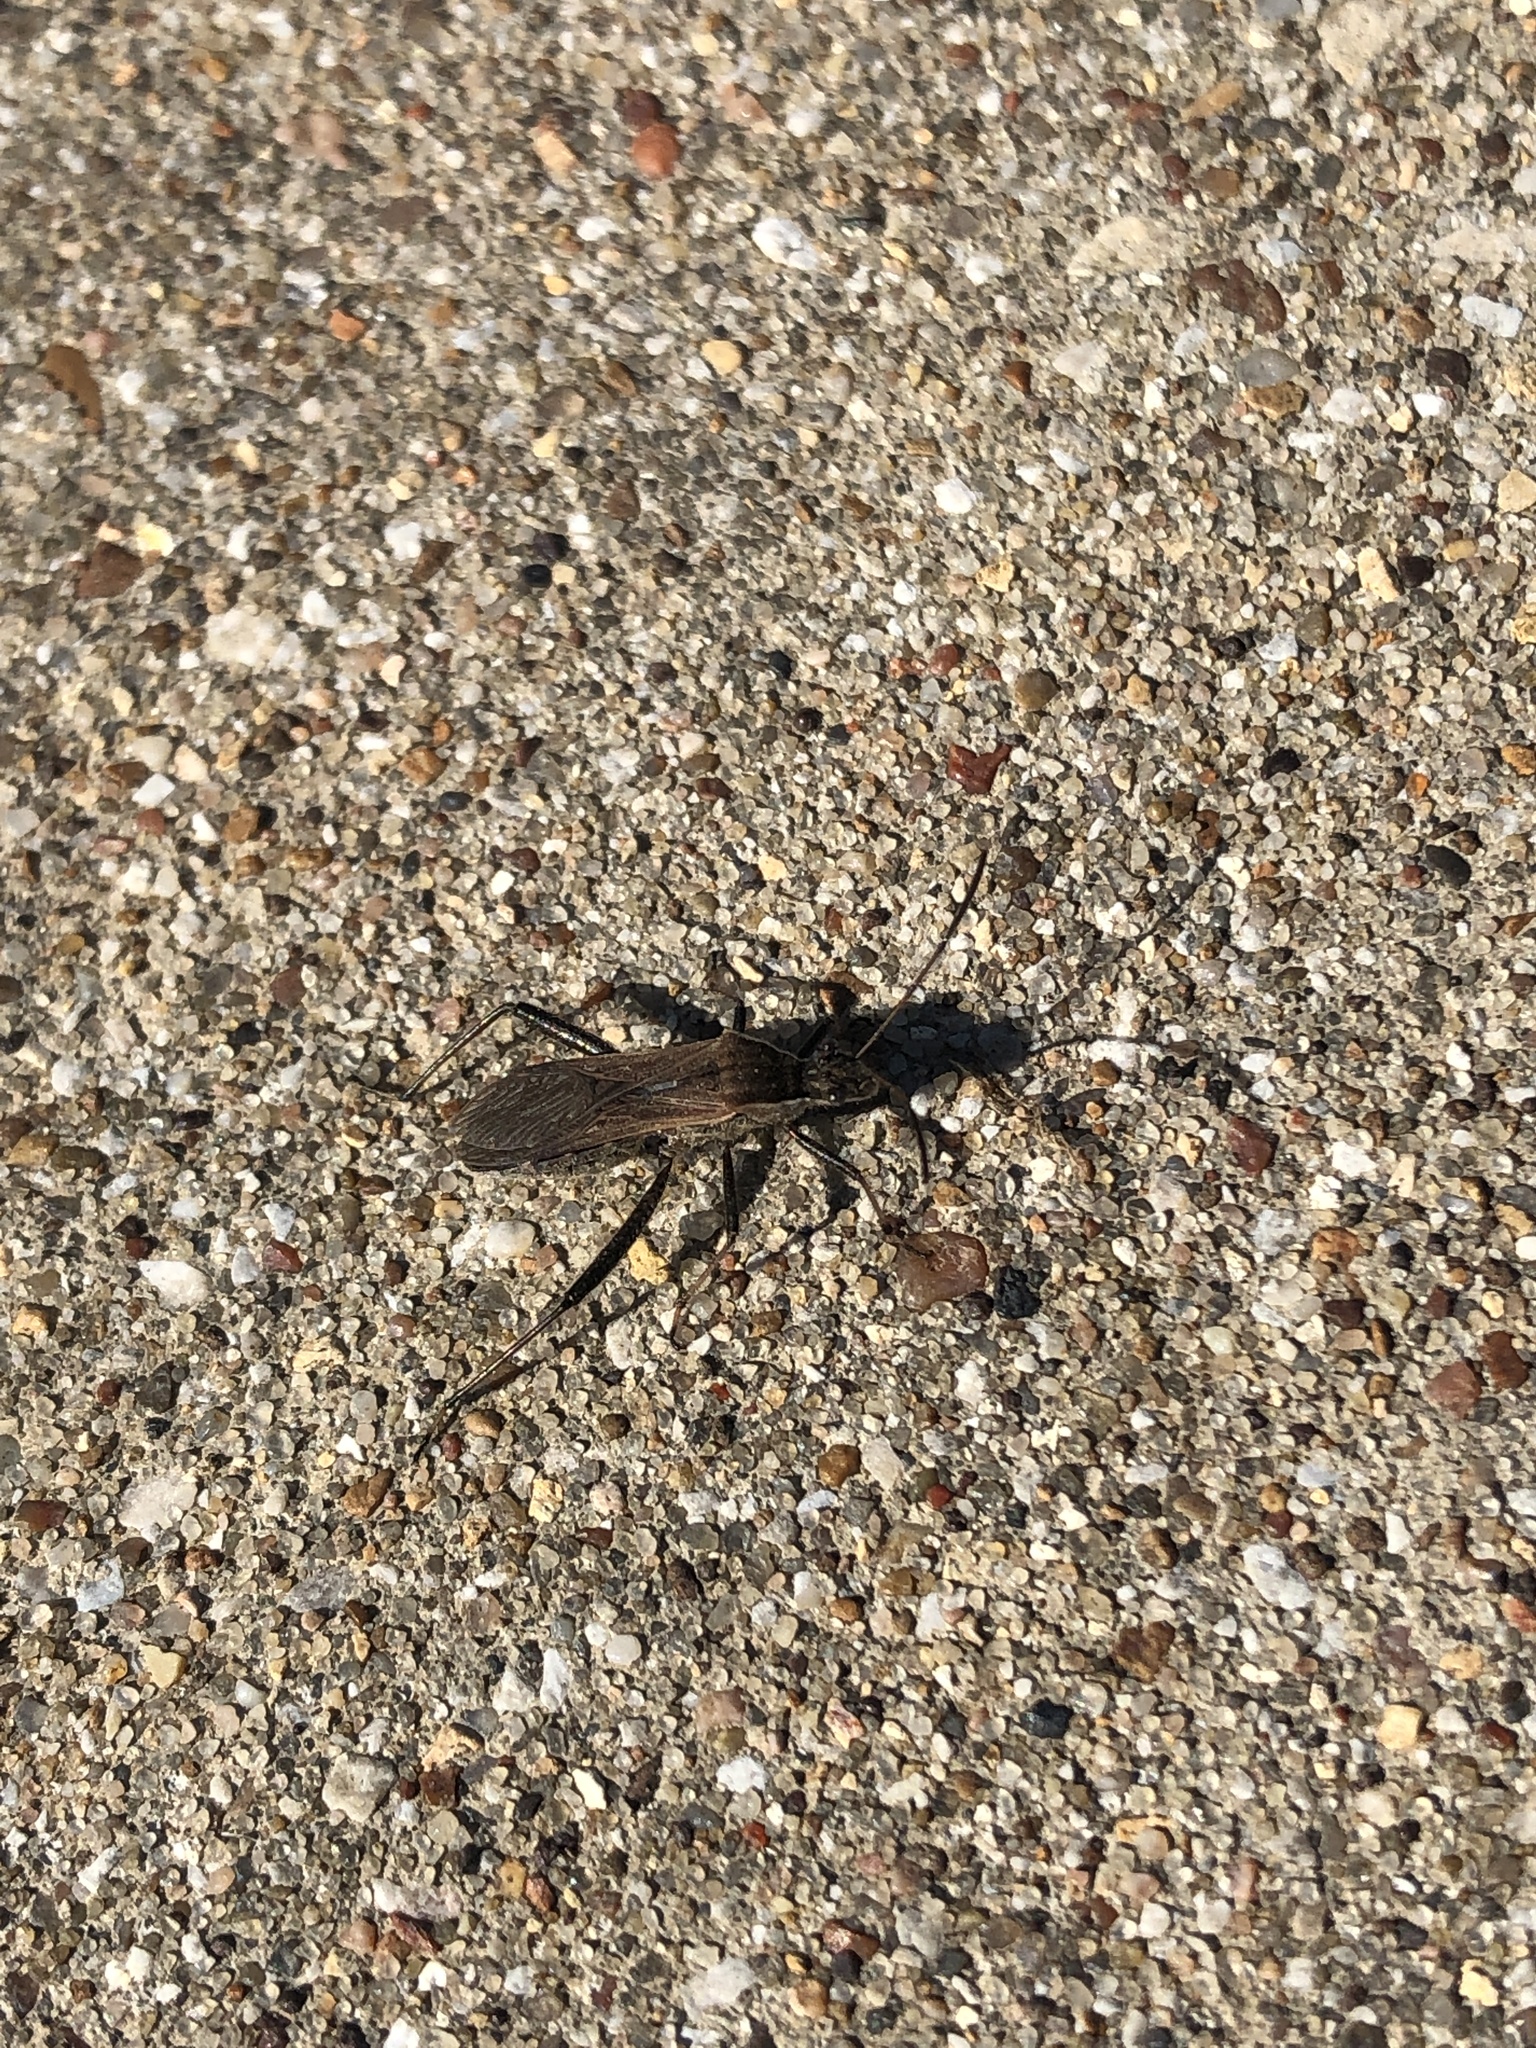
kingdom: Animalia
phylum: Arthropoda
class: Insecta
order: Hemiptera
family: Alydidae
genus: Alydus
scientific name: Alydus pilosulus
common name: Broad-headed bug
